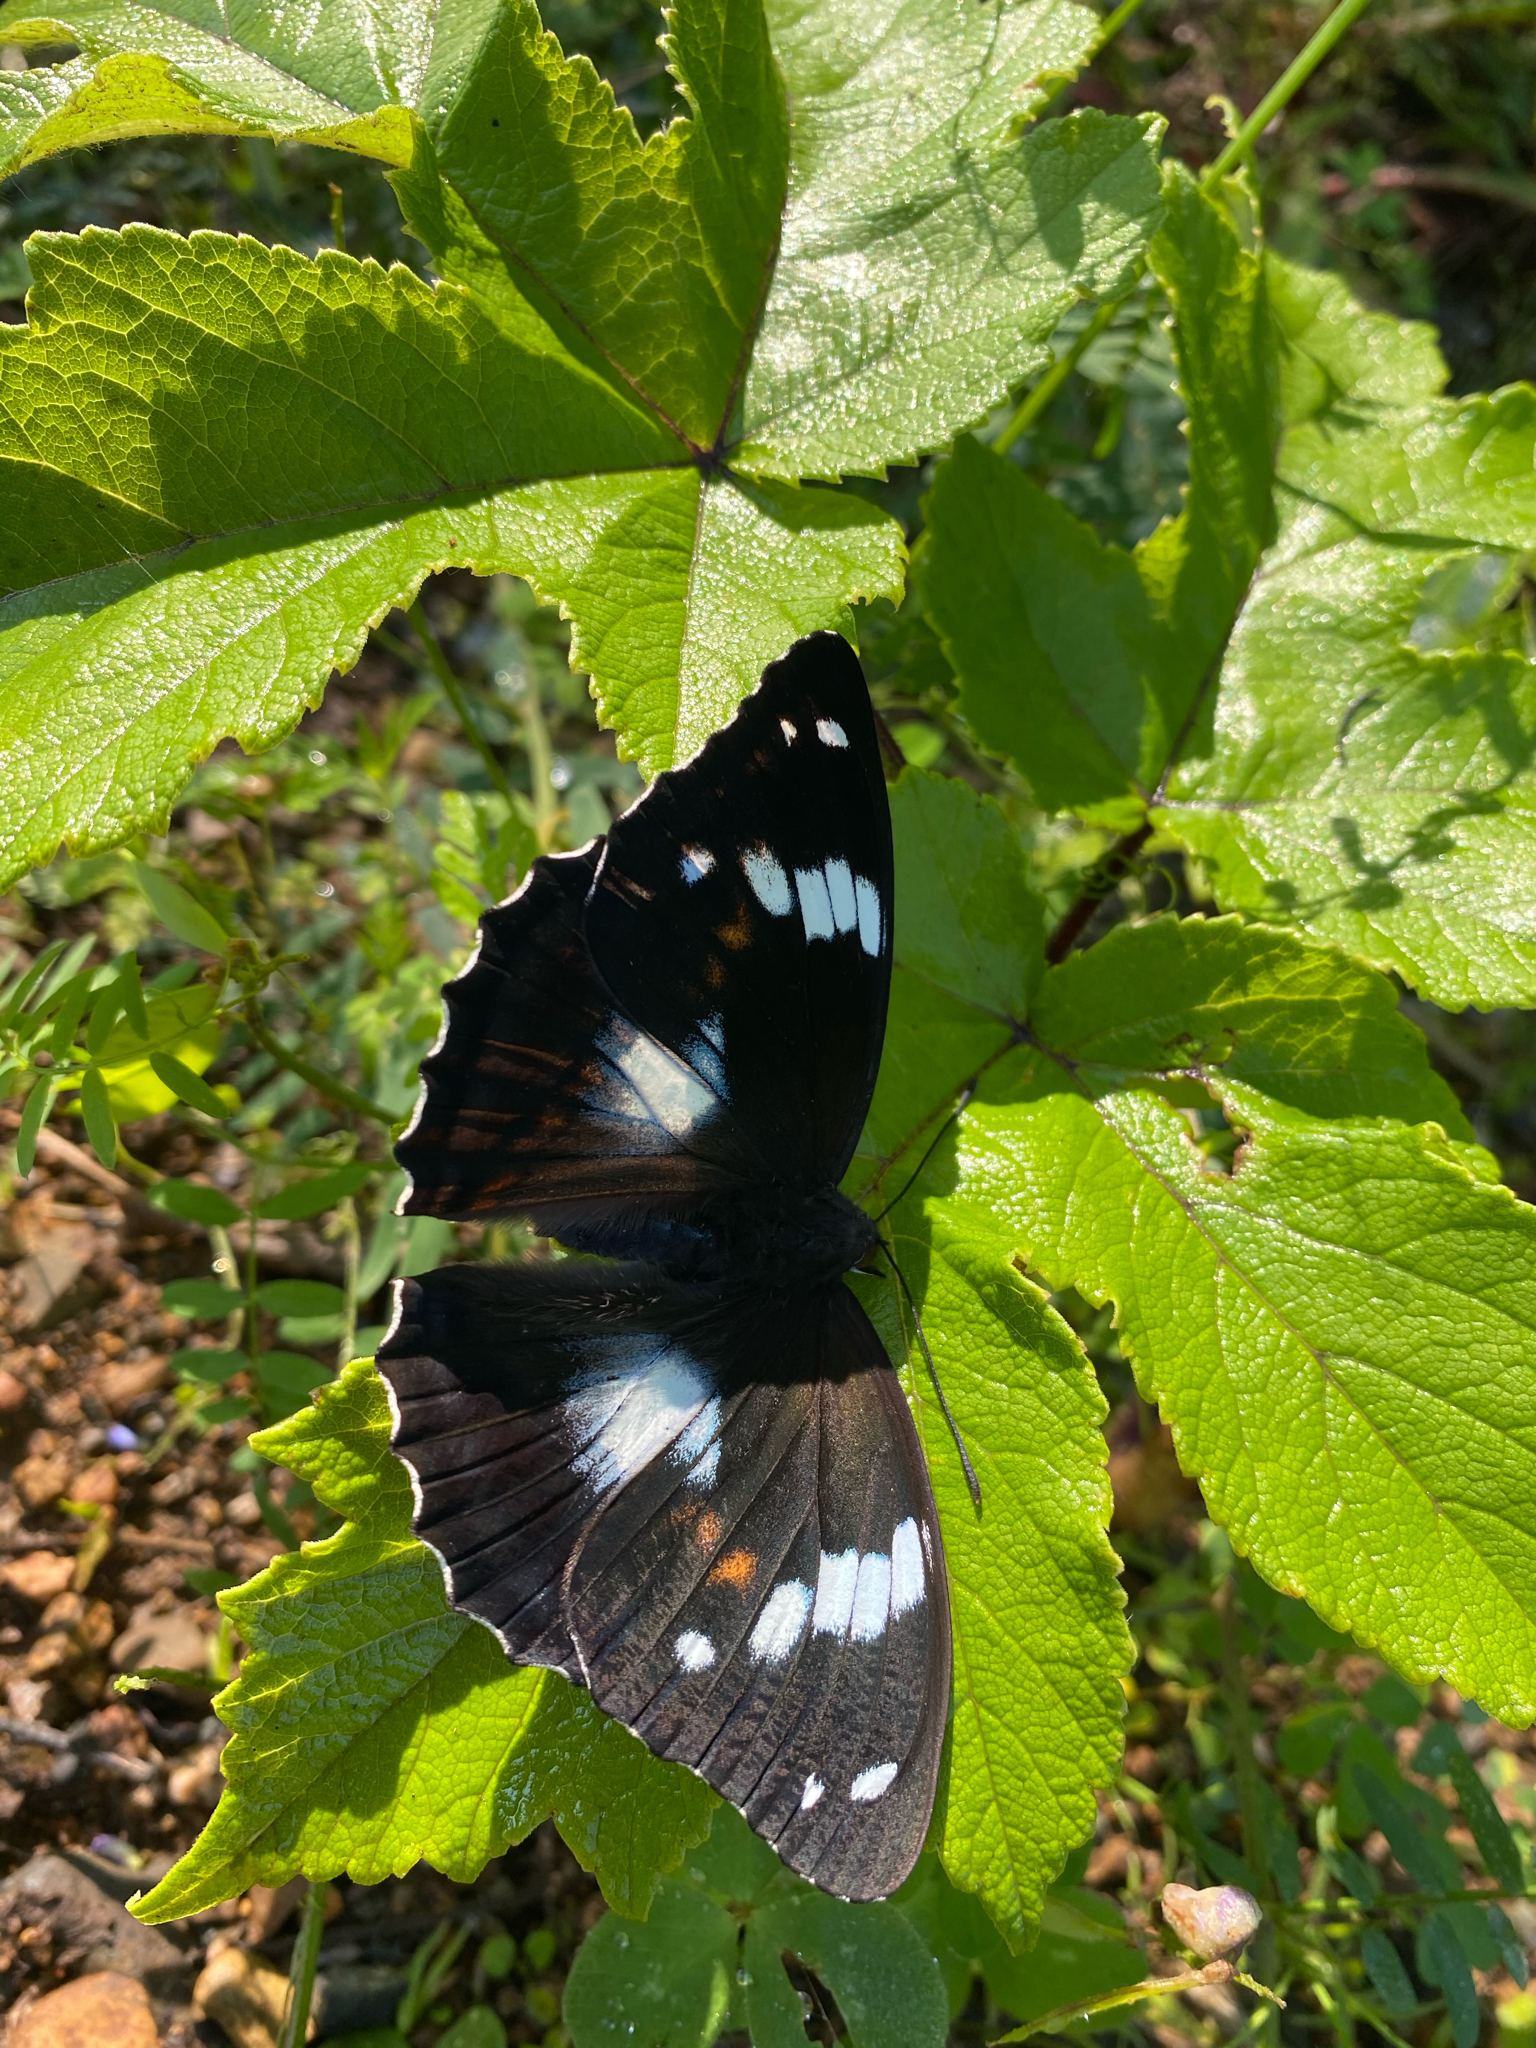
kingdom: Animalia
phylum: Arthropoda
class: Insecta
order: Lepidoptera
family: Nymphalidae
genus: Apatura
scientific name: Apatura Mimathyma schrencki
